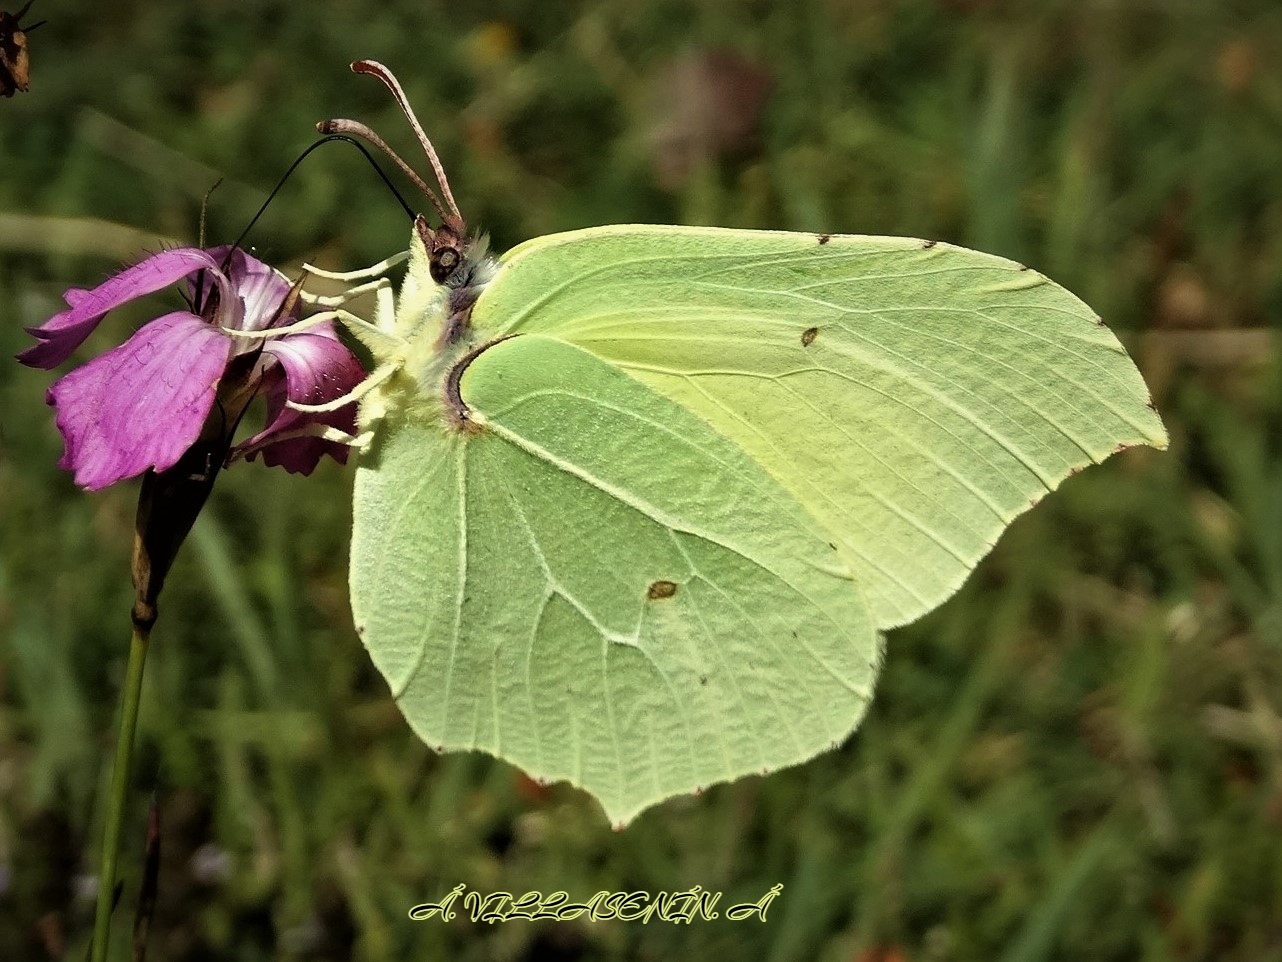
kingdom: Animalia
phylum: Arthropoda
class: Insecta
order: Lepidoptera
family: Pieridae
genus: Gonepteryx
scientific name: Gonepteryx rhamni
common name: Brimstone
